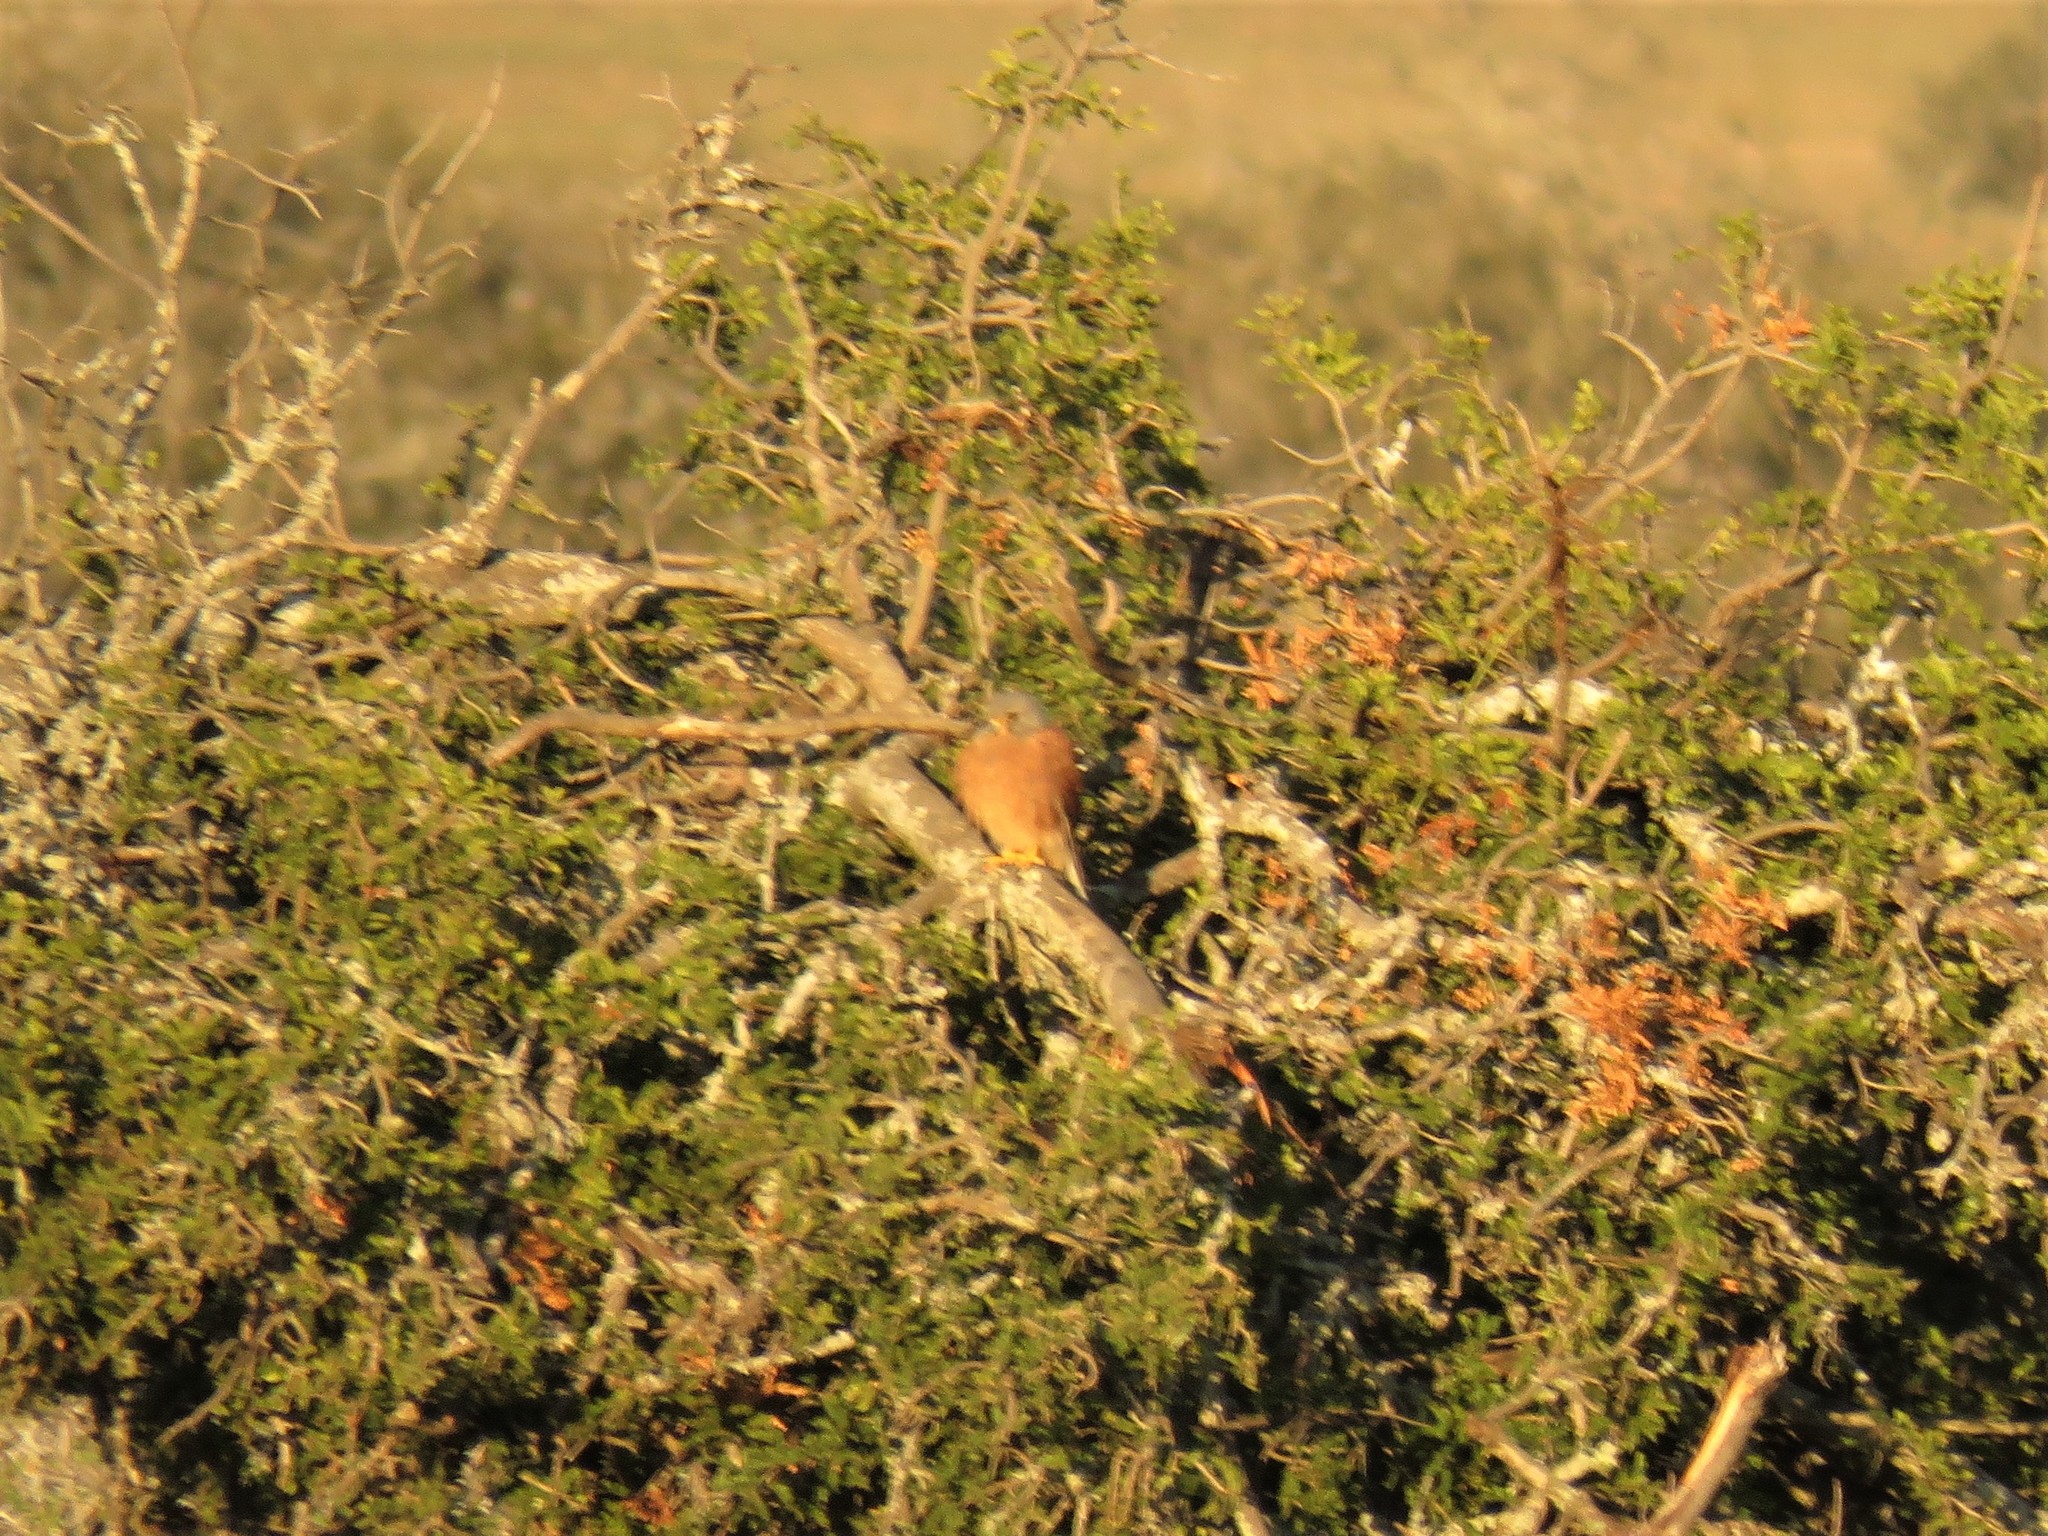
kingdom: Animalia
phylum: Chordata
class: Aves
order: Falconiformes
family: Falconidae
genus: Falco
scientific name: Falco rupicolus
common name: Rock kestrel
